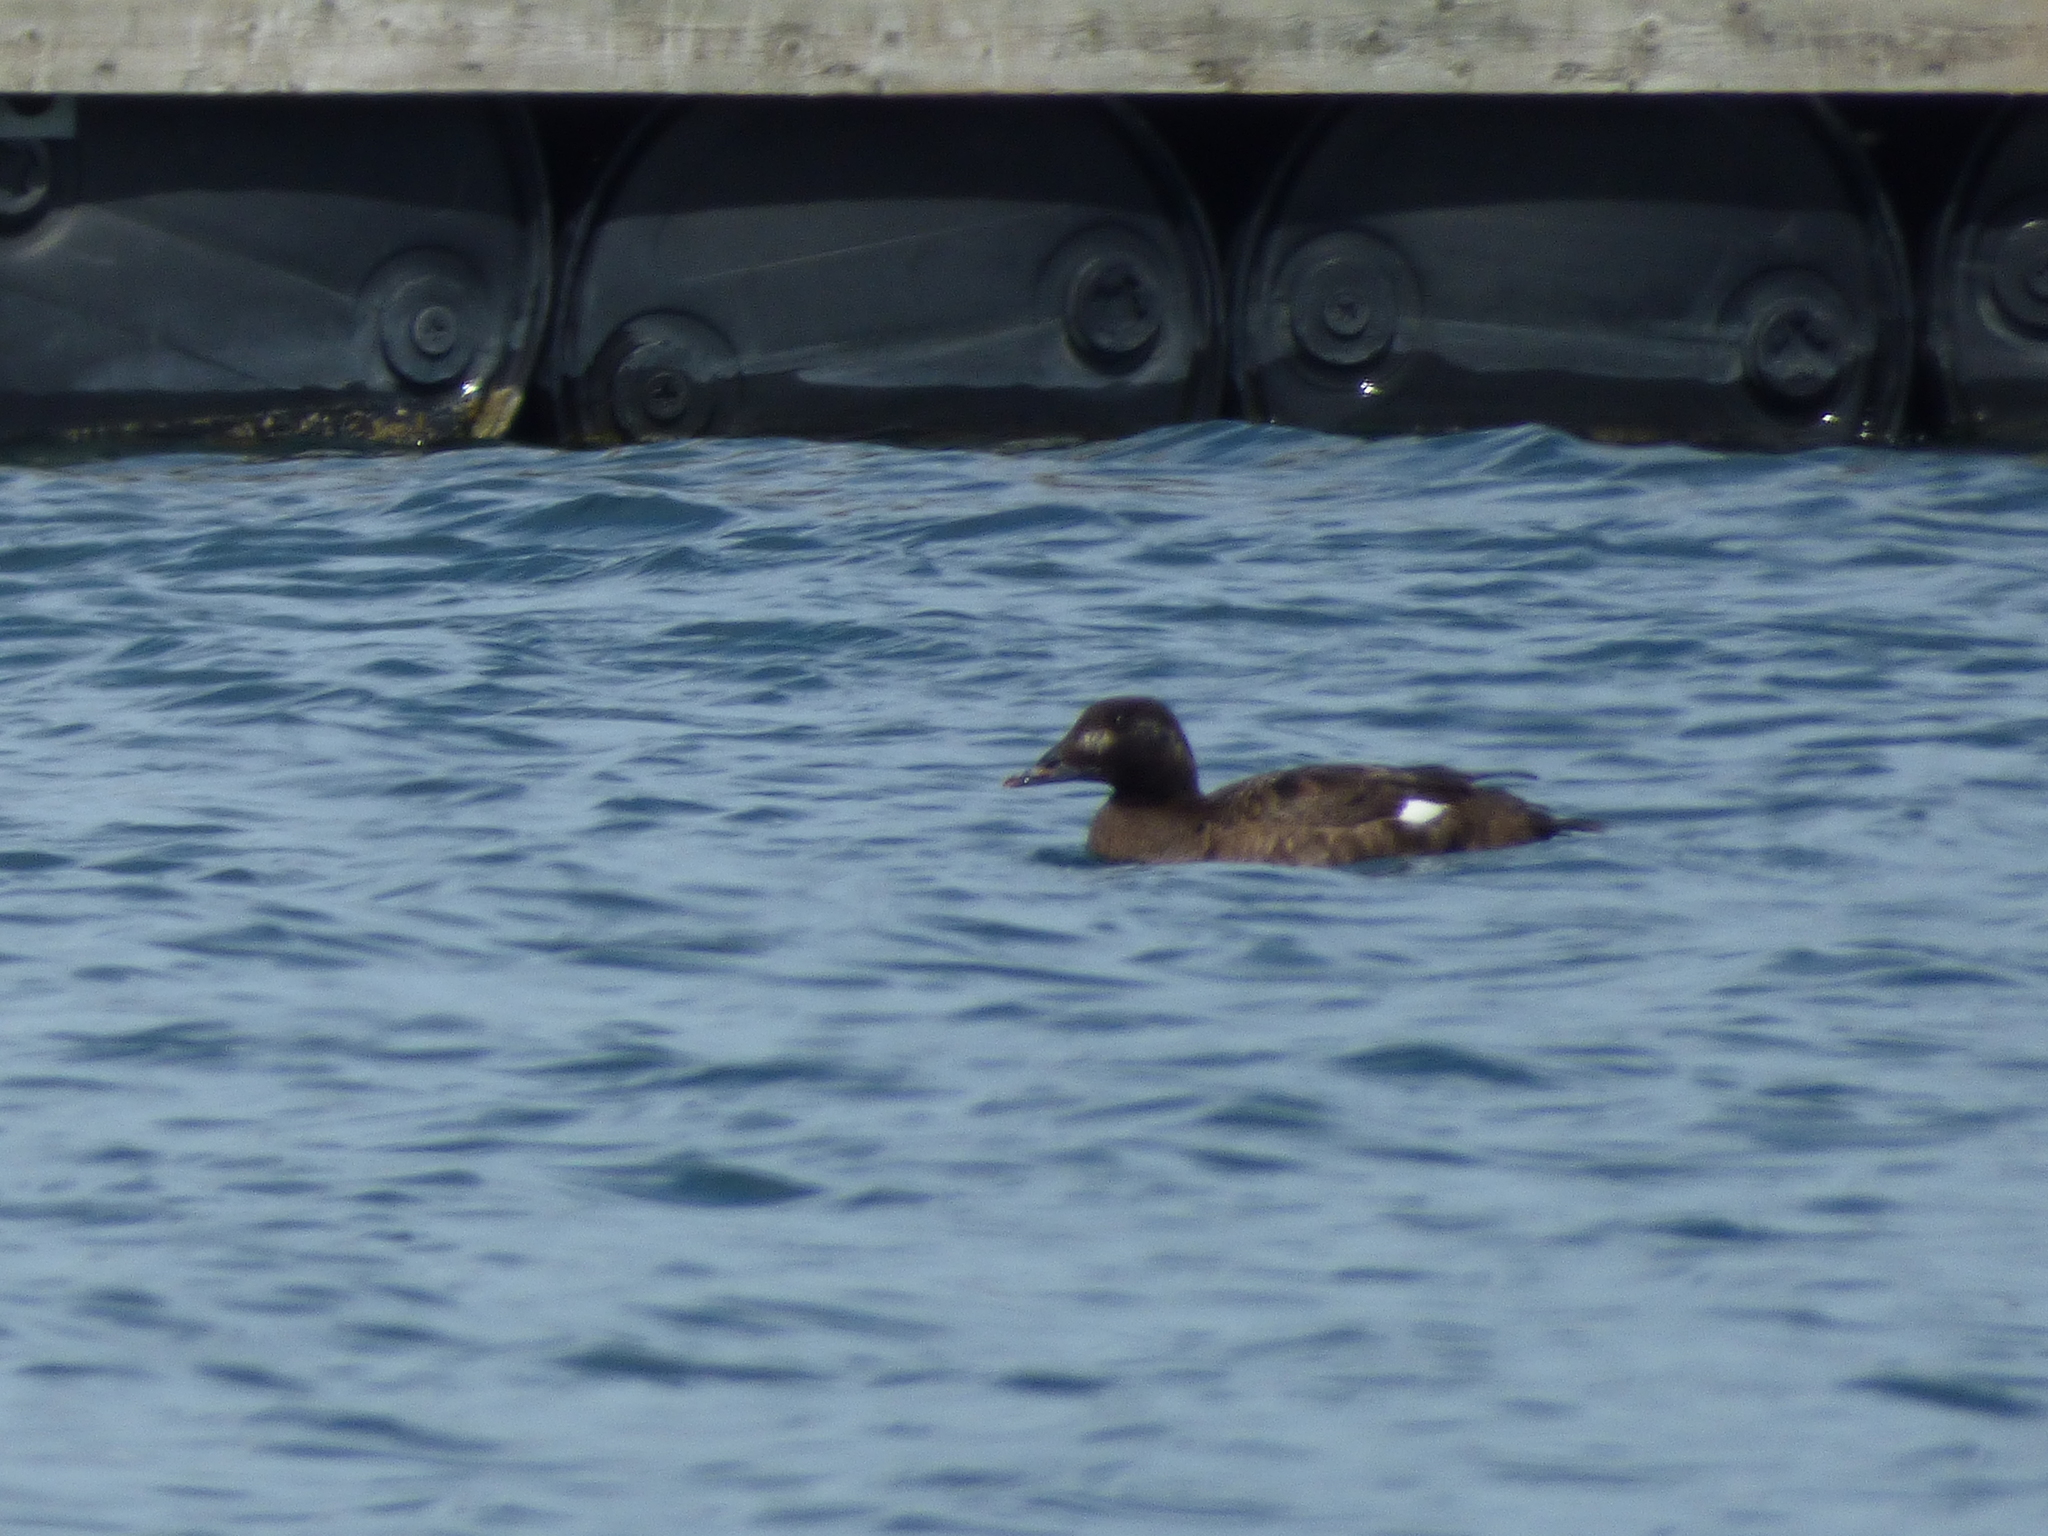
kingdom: Animalia
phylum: Chordata
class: Aves
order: Anseriformes
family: Anatidae
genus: Melanitta
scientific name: Melanitta deglandi
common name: White-winged scoter
